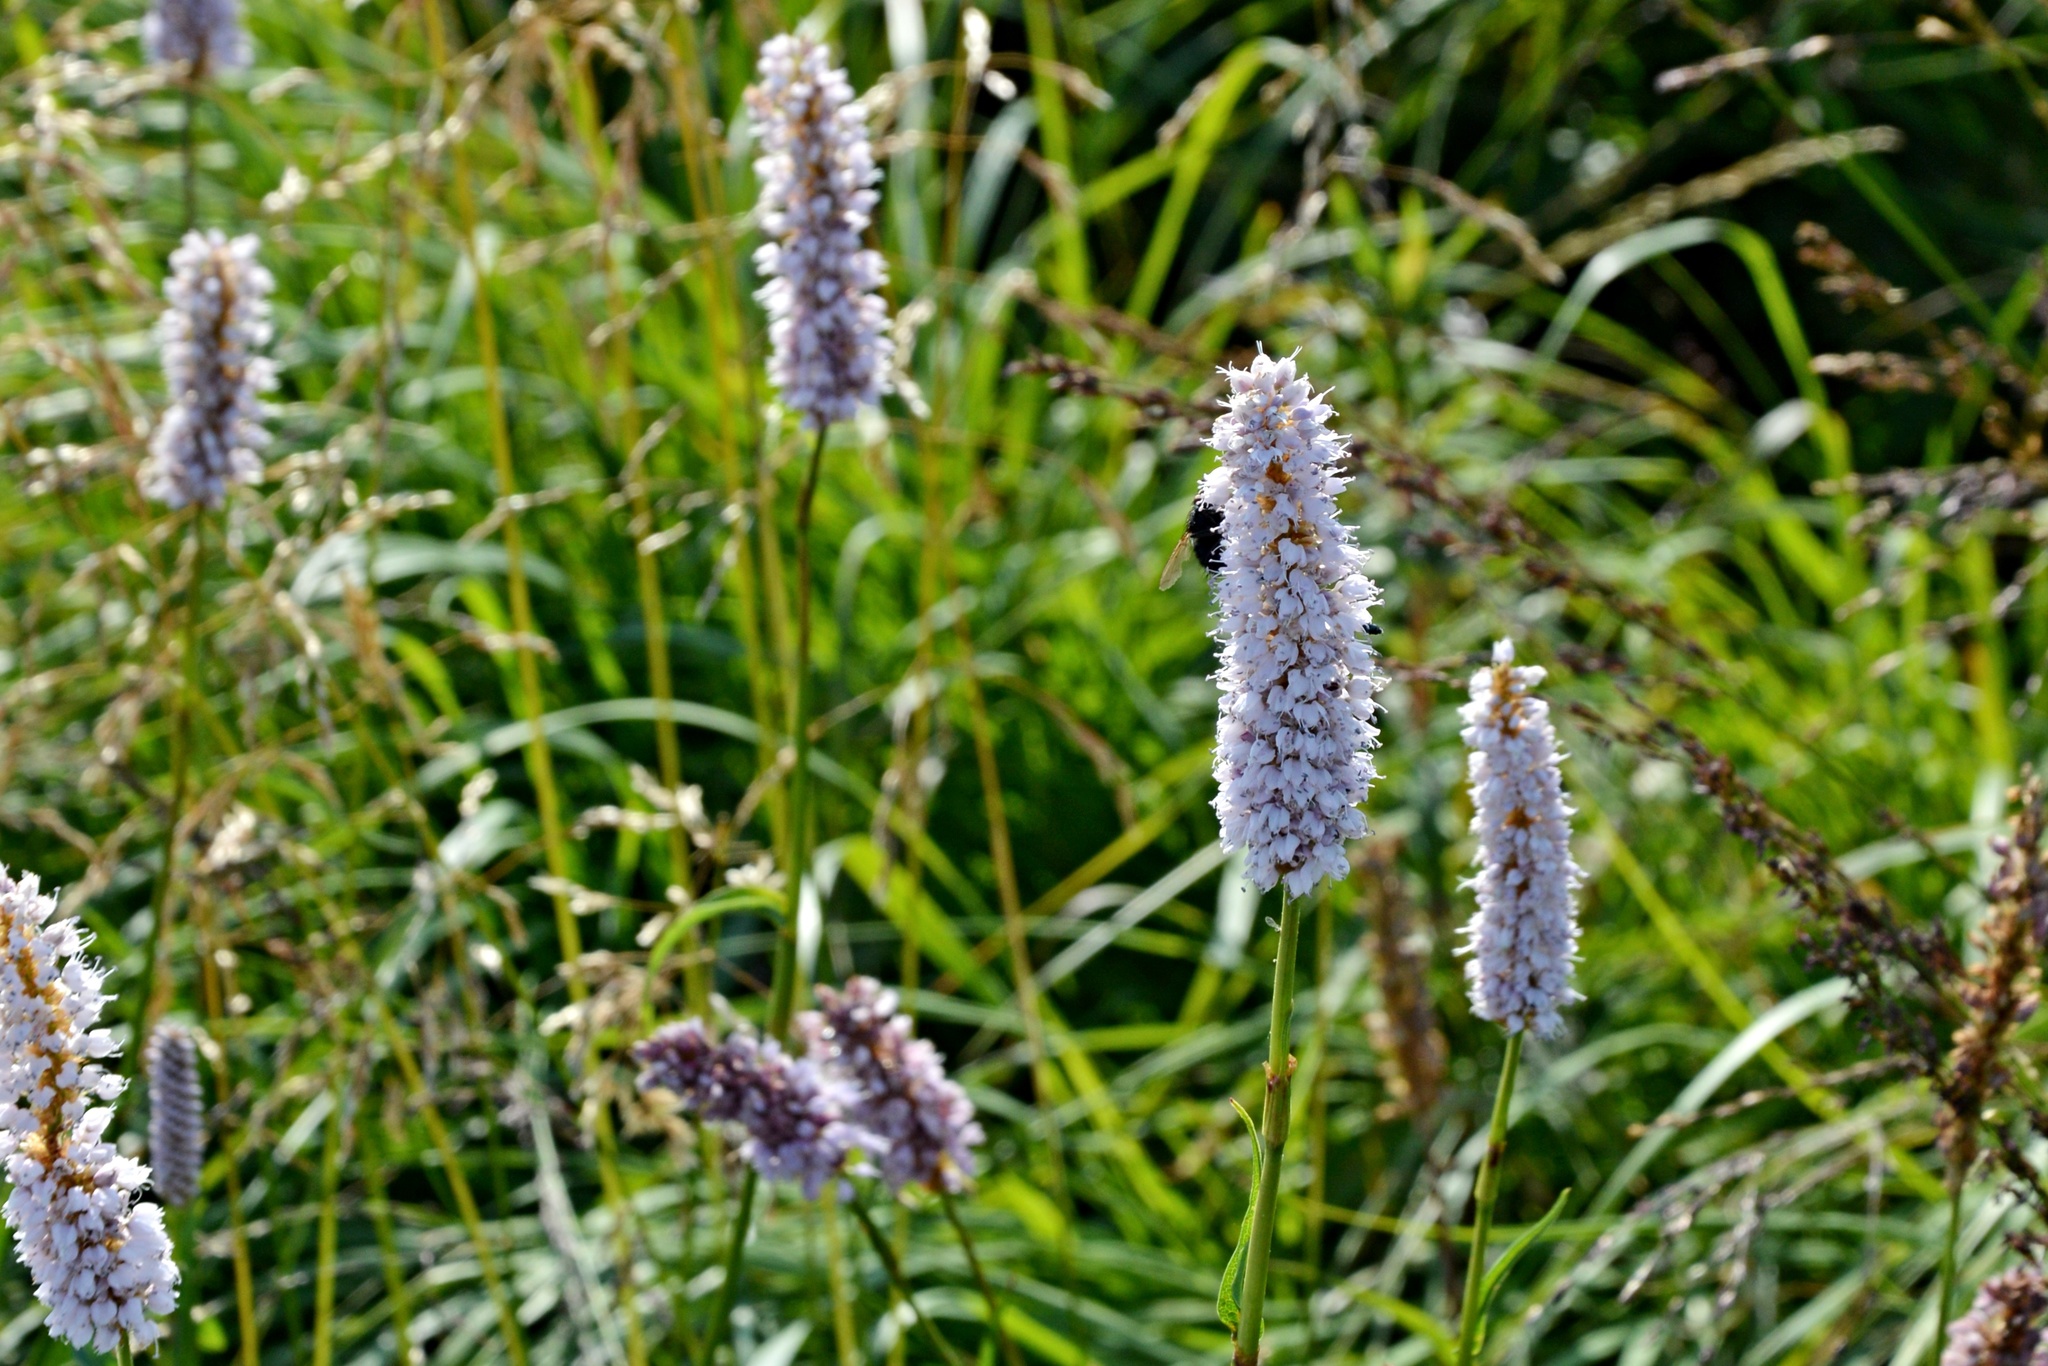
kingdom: Plantae
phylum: Tracheophyta
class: Magnoliopsida
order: Caryophyllales
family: Polygonaceae
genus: Bistorta
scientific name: Bistorta officinalis
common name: Common bistort
